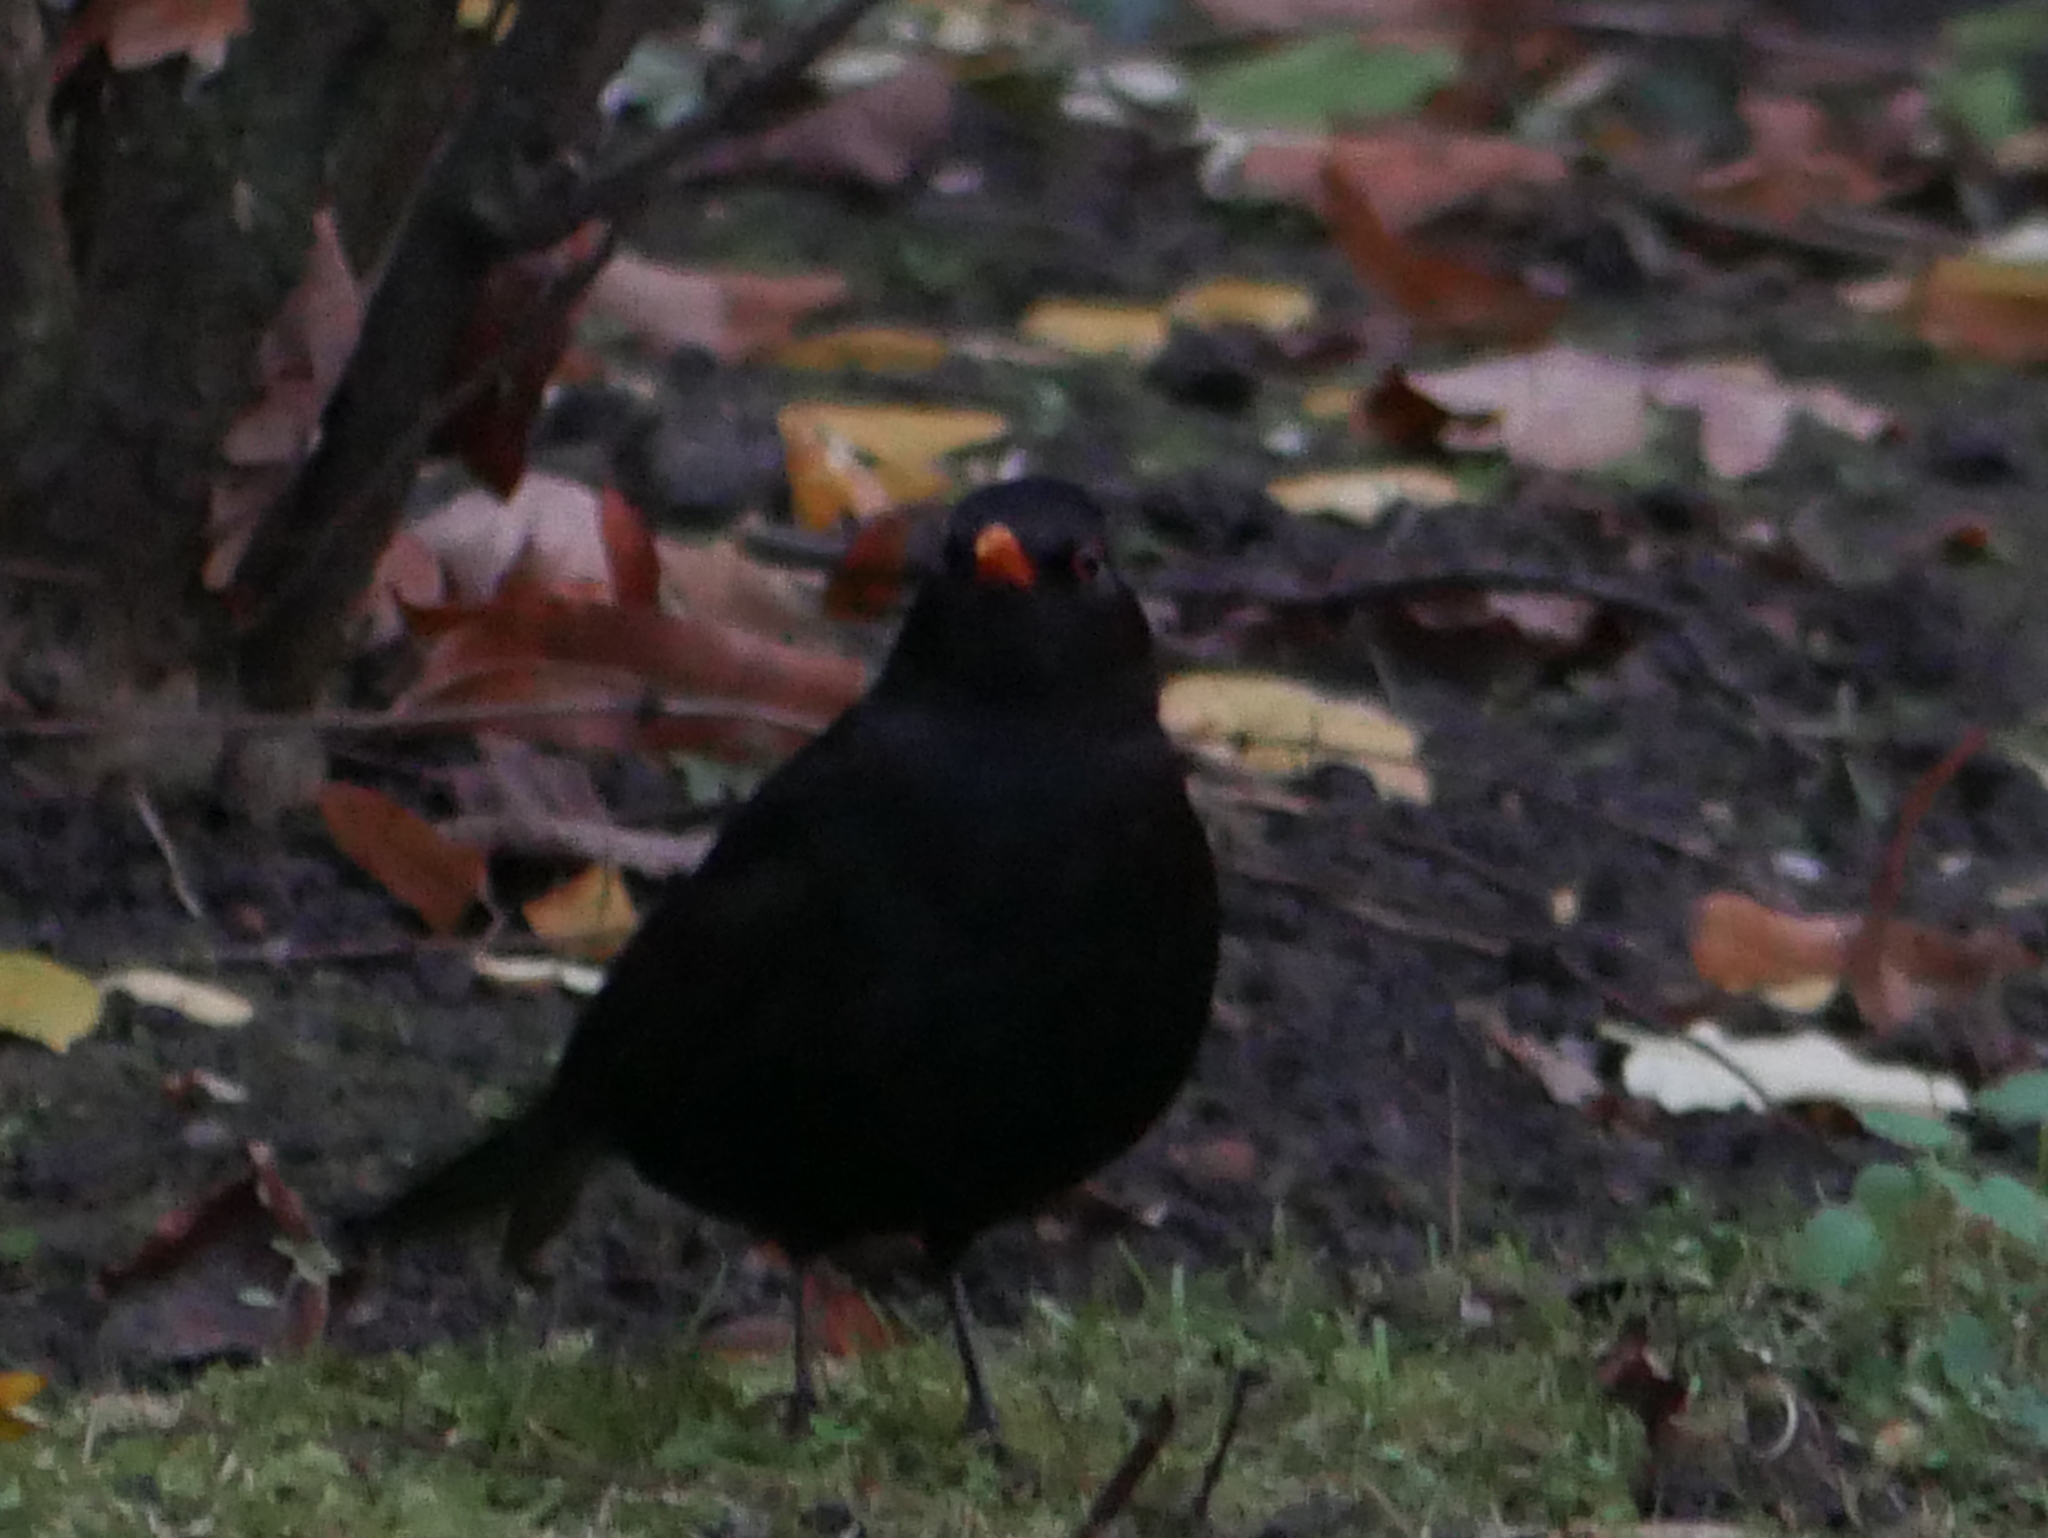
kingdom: Animalia
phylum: Chordata
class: Aves
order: Passeriformes
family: Turdidae
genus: Turdus
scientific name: Turdus merula
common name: Common blackbird
